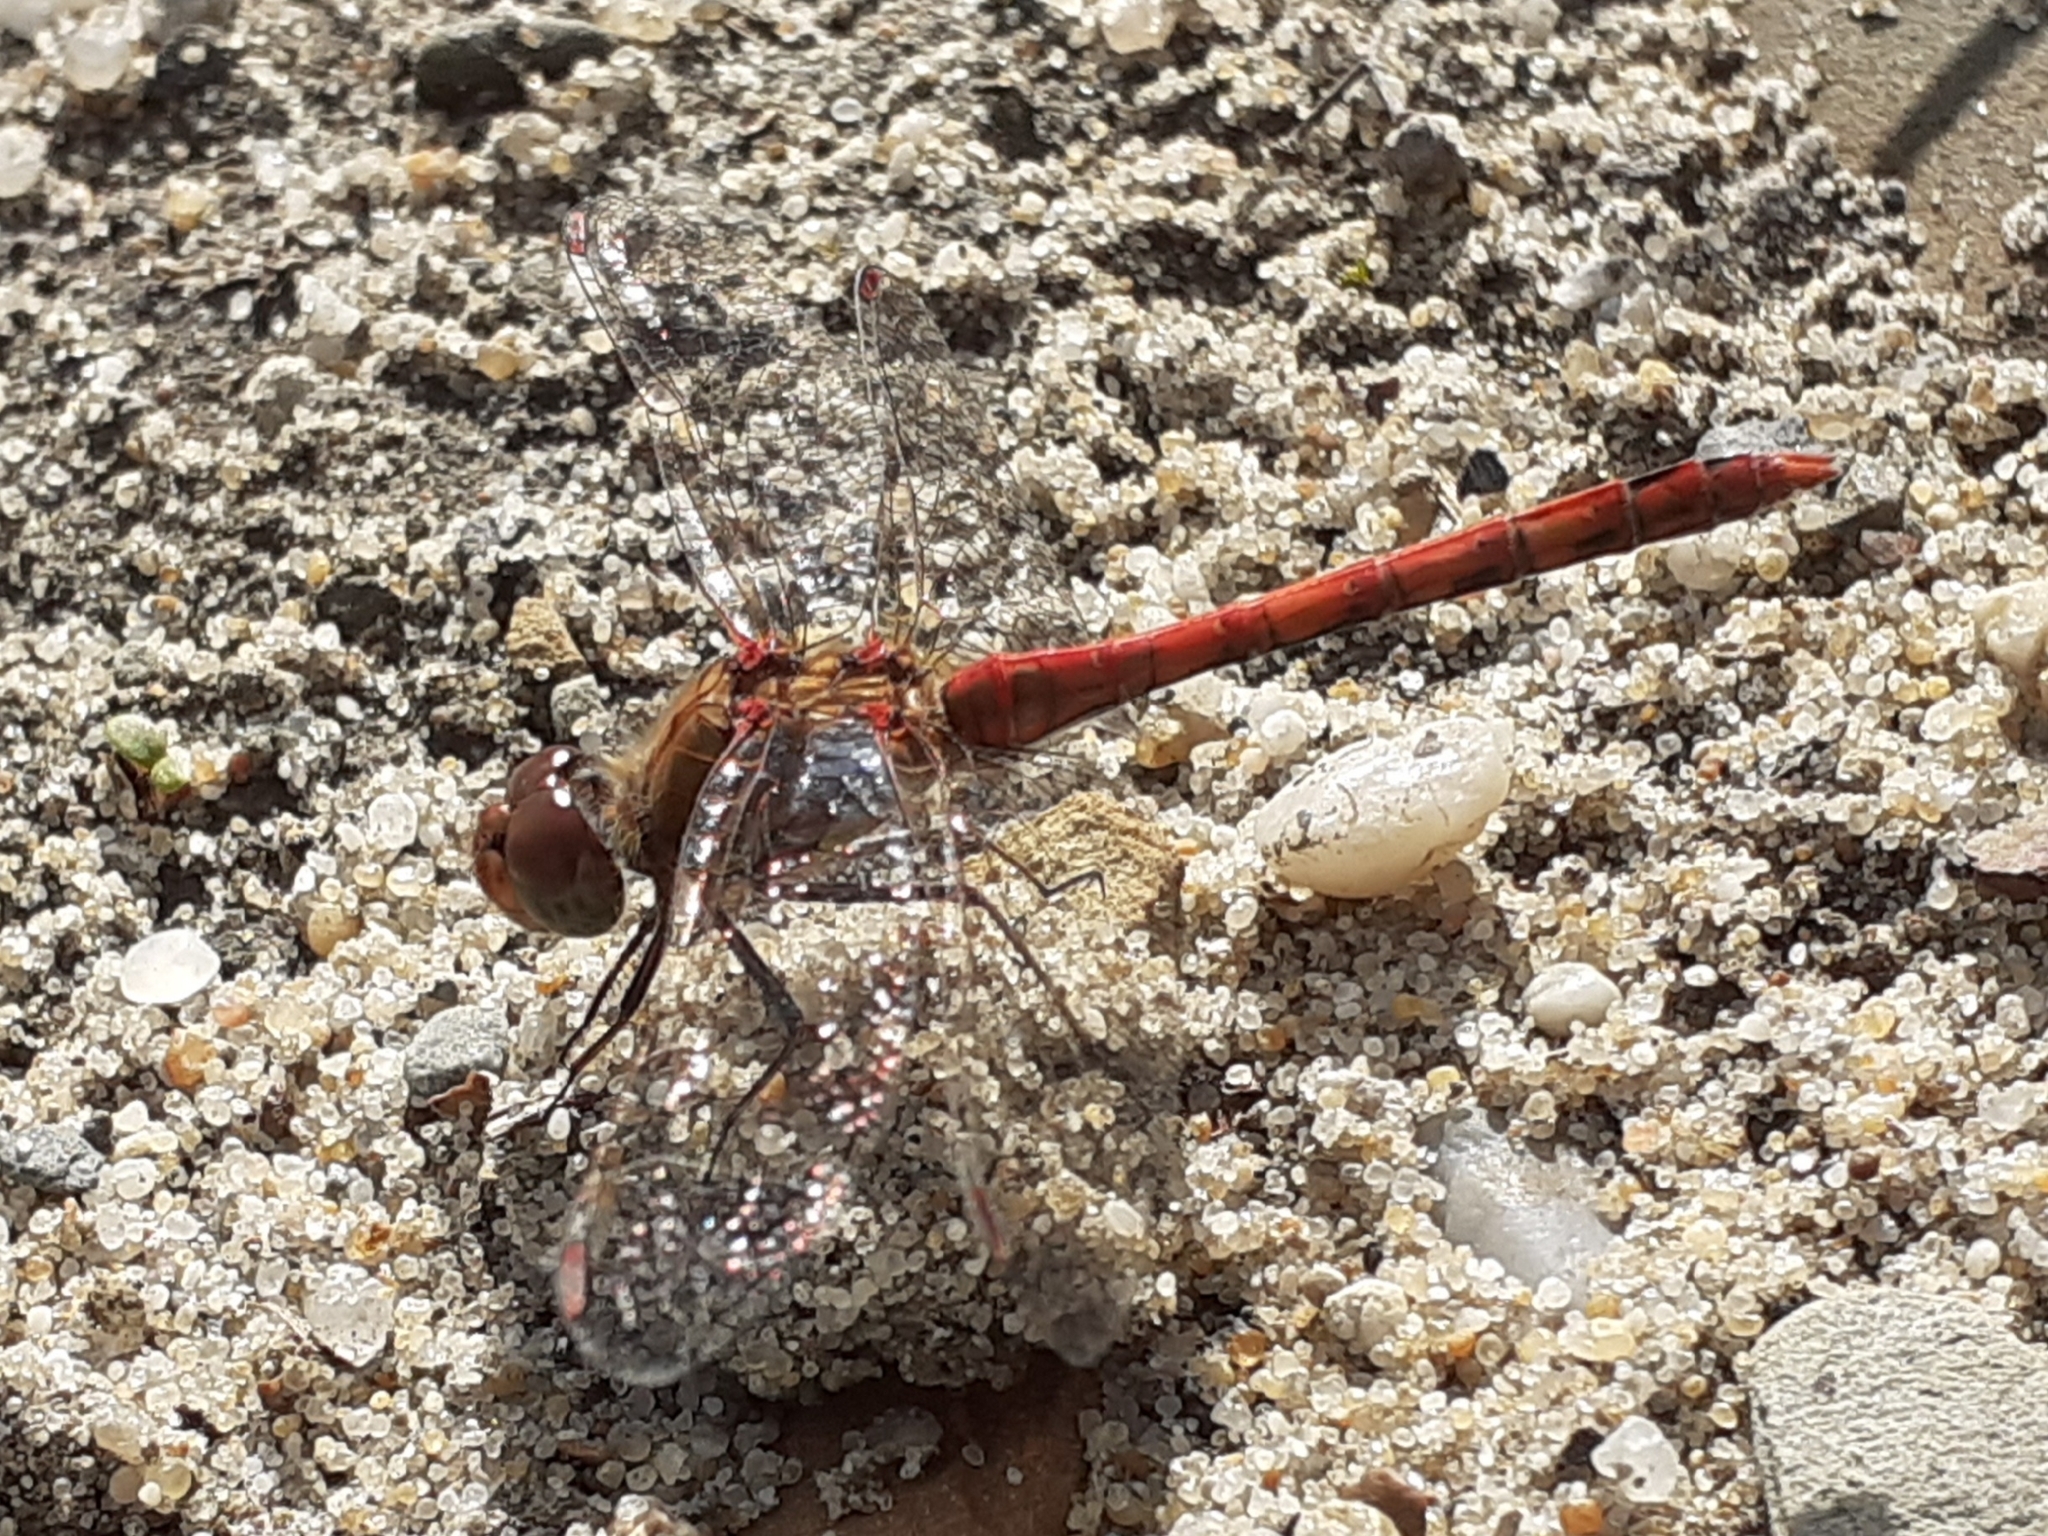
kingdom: Animalia
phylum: Arthropoda
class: Insecta
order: Odonata
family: Libellulidae
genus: Sympetrum
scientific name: Sympetrum striolatum
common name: Common darter
